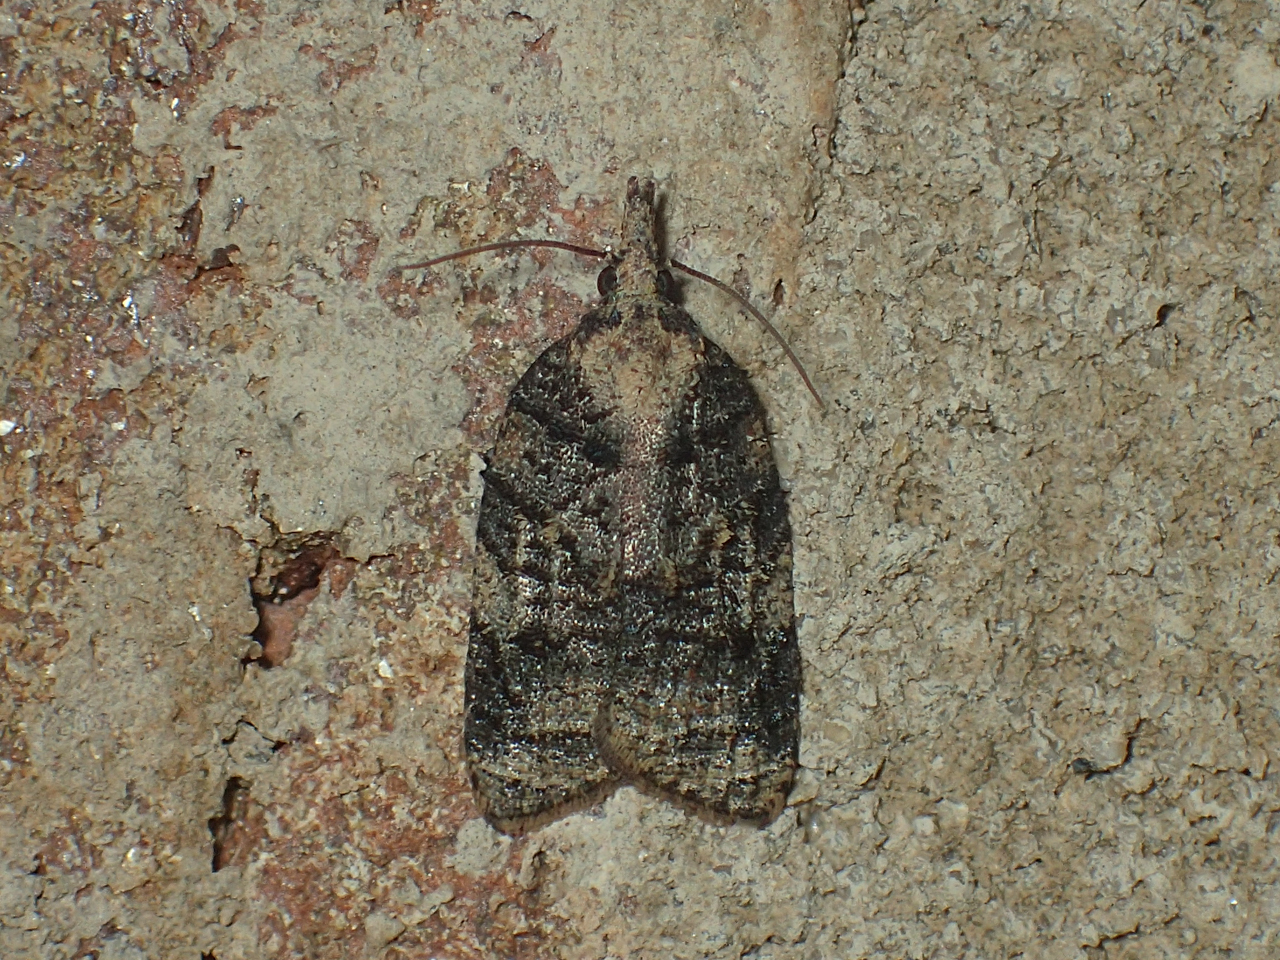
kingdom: Animalia
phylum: Arthropoda
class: Insecta
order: Lepidoptera
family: Tortricidae
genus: Platynota
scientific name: Platynota exasperatana
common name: Exasperating platynota moth
